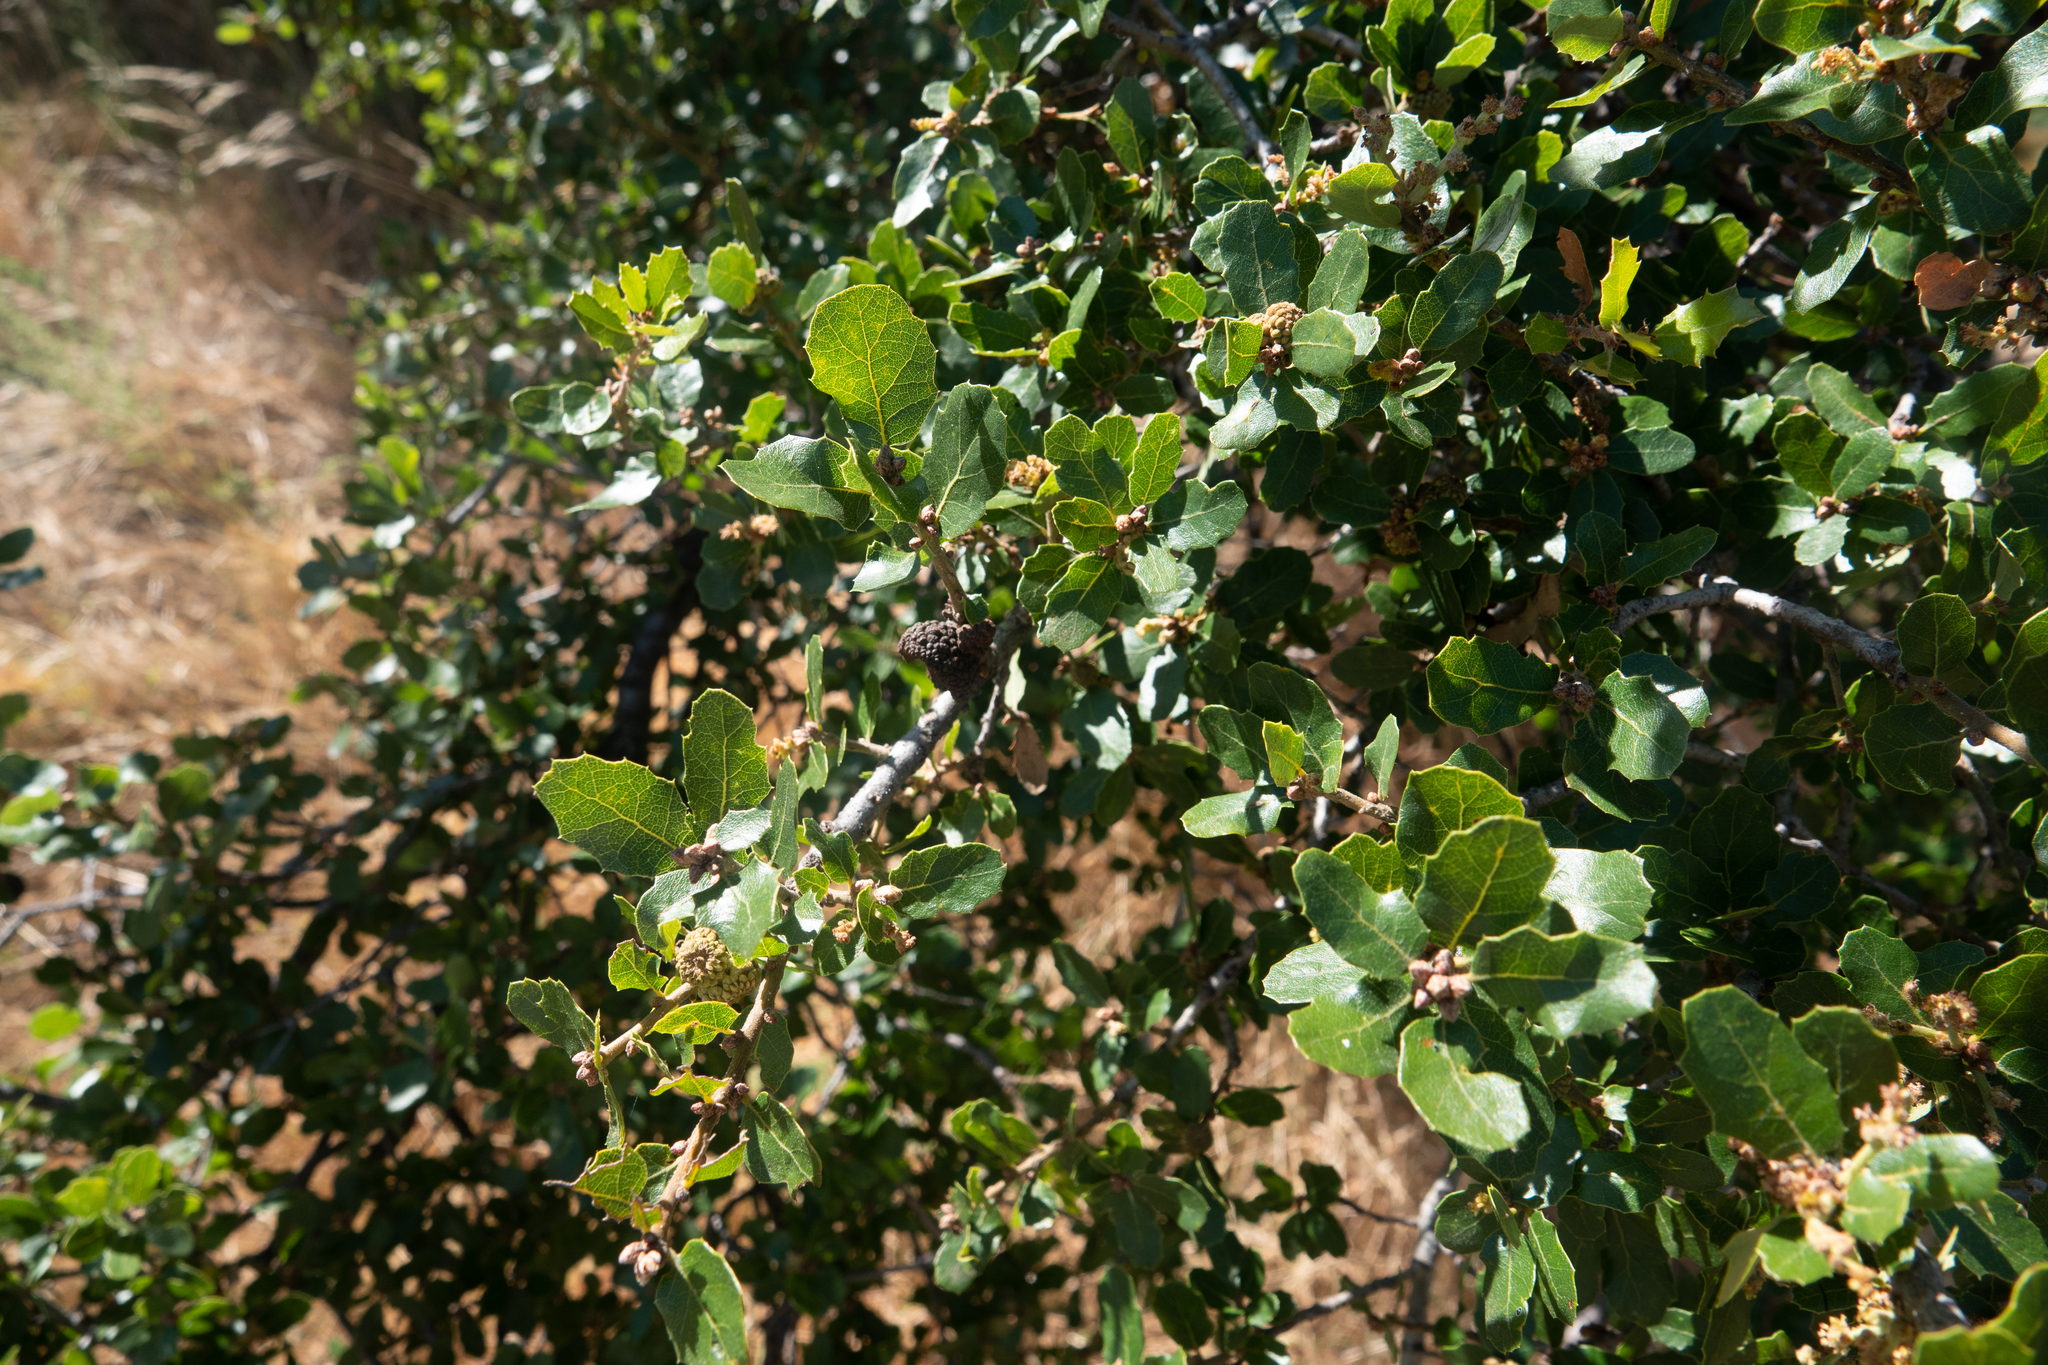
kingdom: Plantae
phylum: Tracheophyta
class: Magnoliopsida
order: Fagales
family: Fagaceae
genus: Quercus
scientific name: Quercus chrysolepis
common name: Canyon live oak
